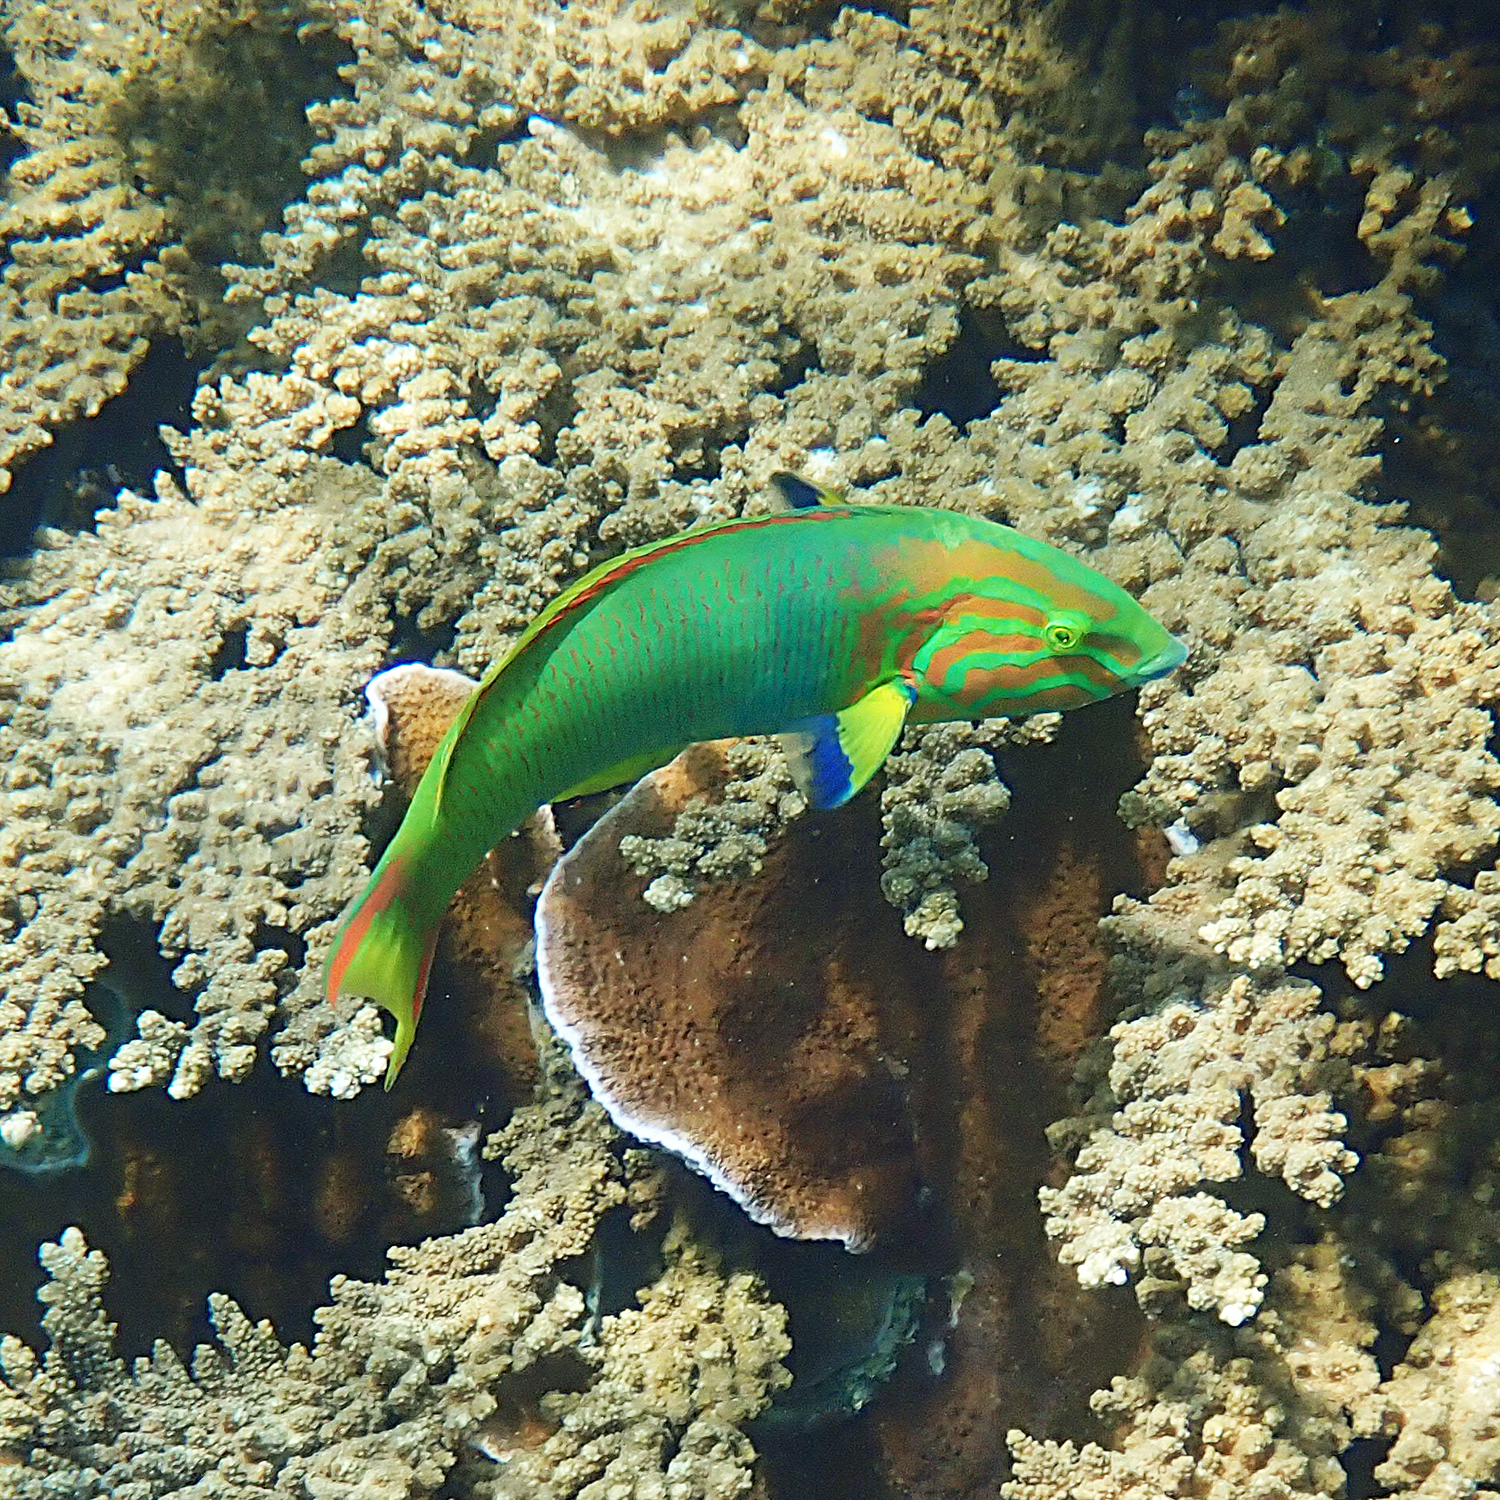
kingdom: Animalia
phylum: Chordata
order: Perciformes
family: Labridae
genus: Thalassoma
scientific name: Thalassoma lutescens
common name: Green moon wrasse
